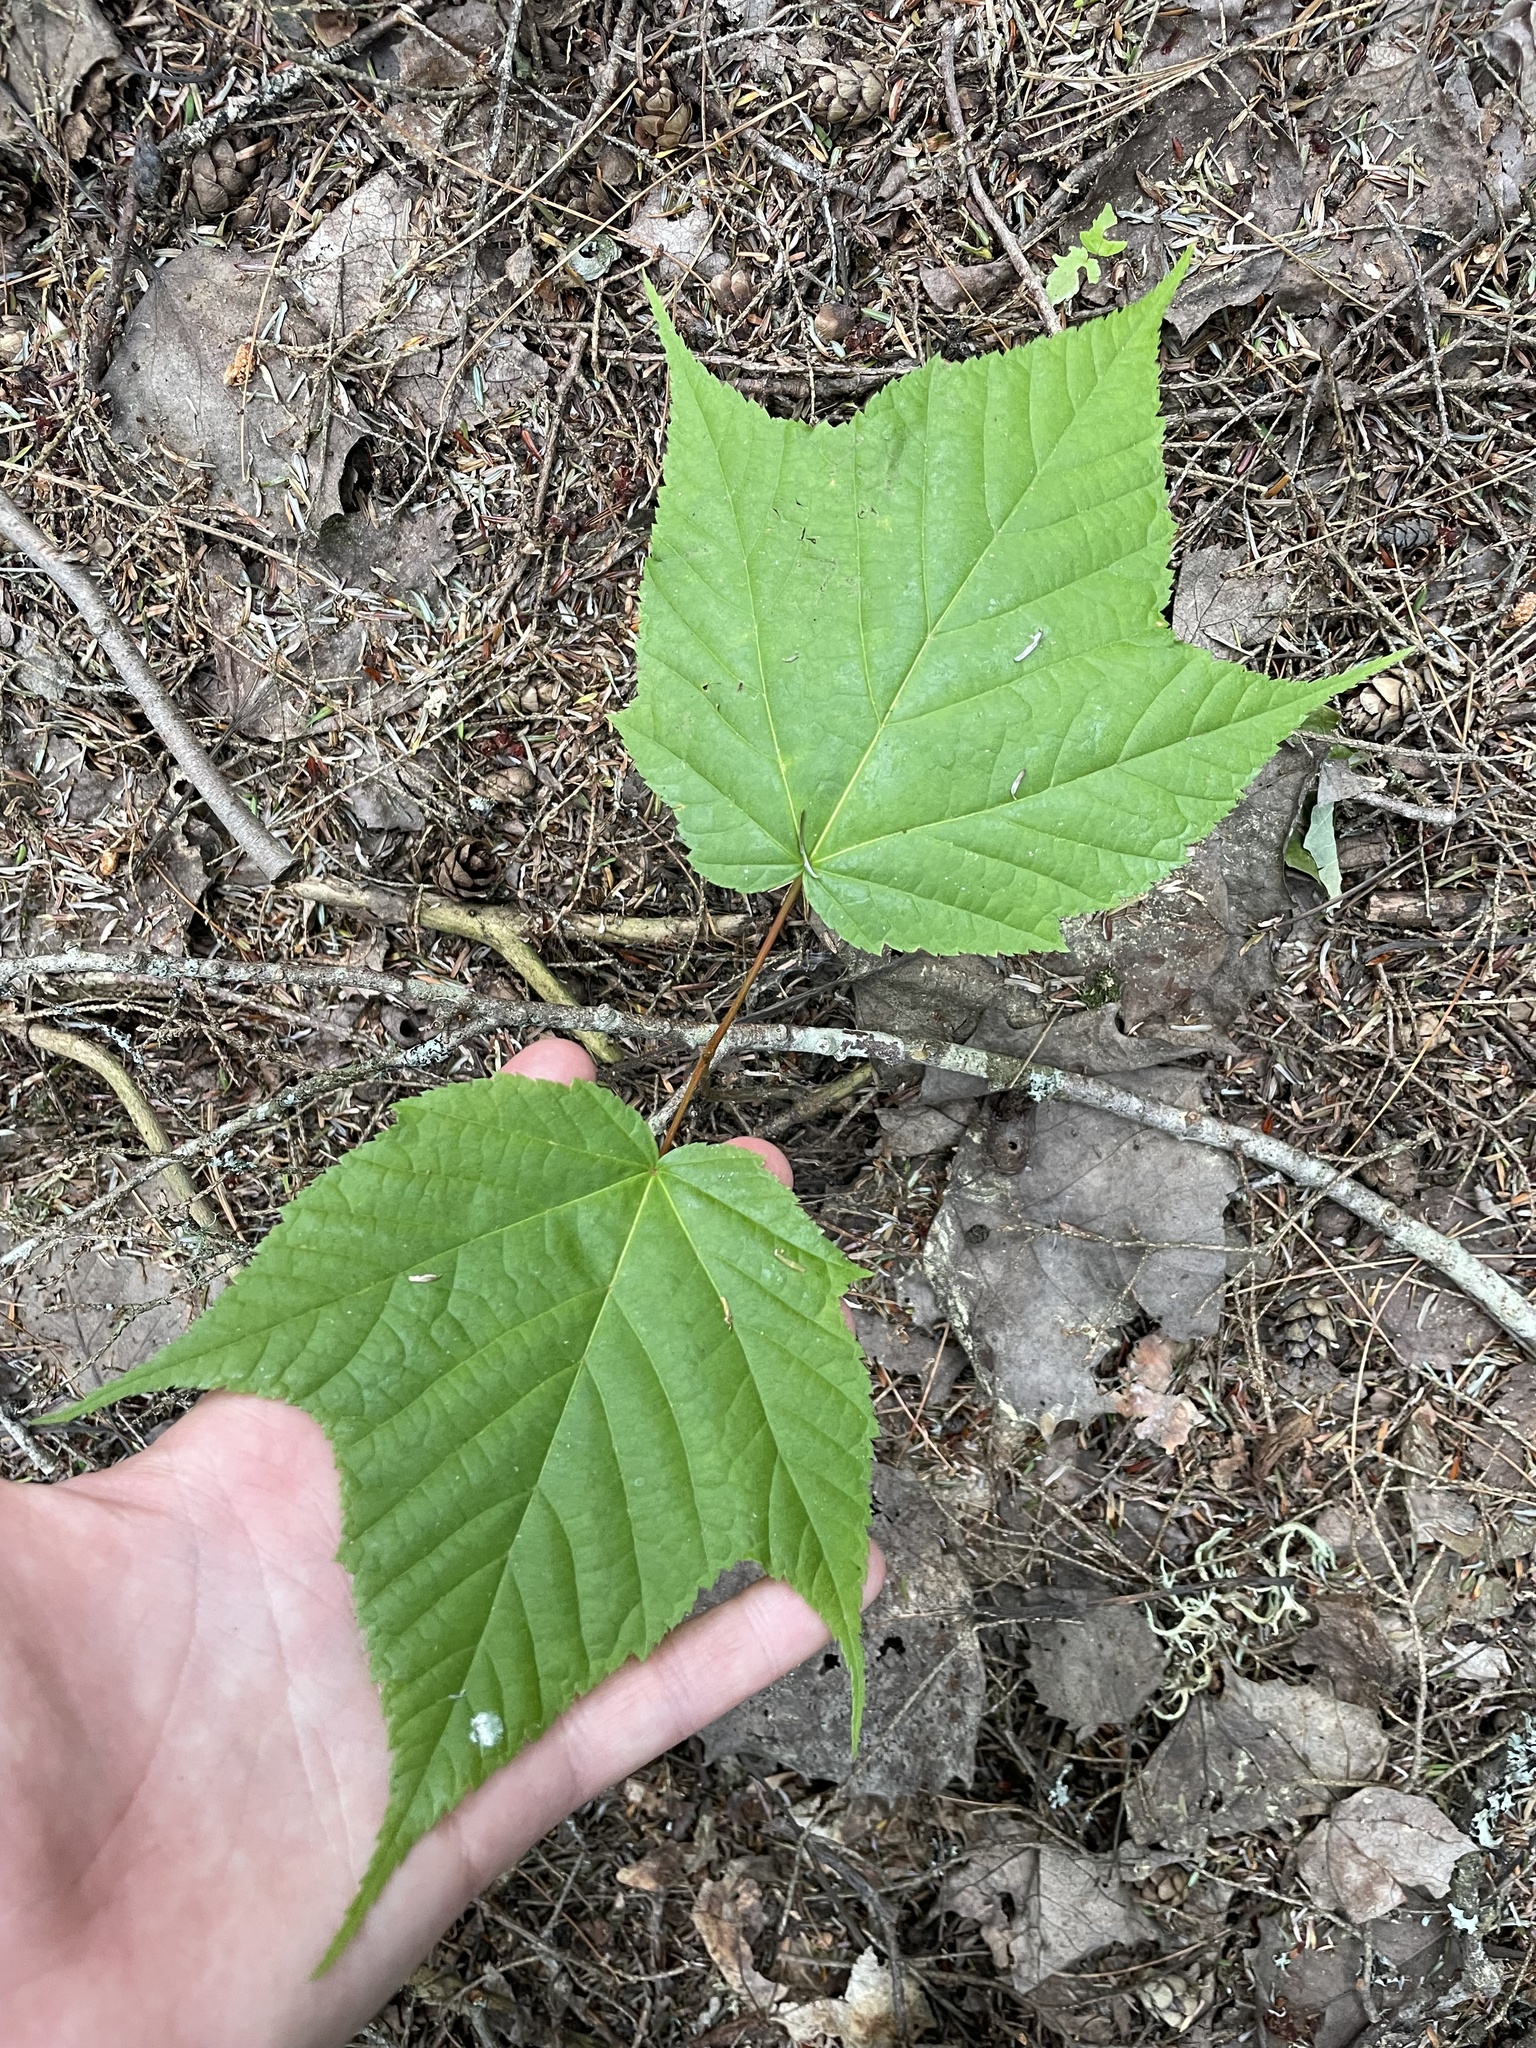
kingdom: Plantae
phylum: Tracheophyta
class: Magnoliopsida
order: Sapindales
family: Sapindaceae
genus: Acer
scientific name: Acer pensylvanicum
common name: Moosewood
